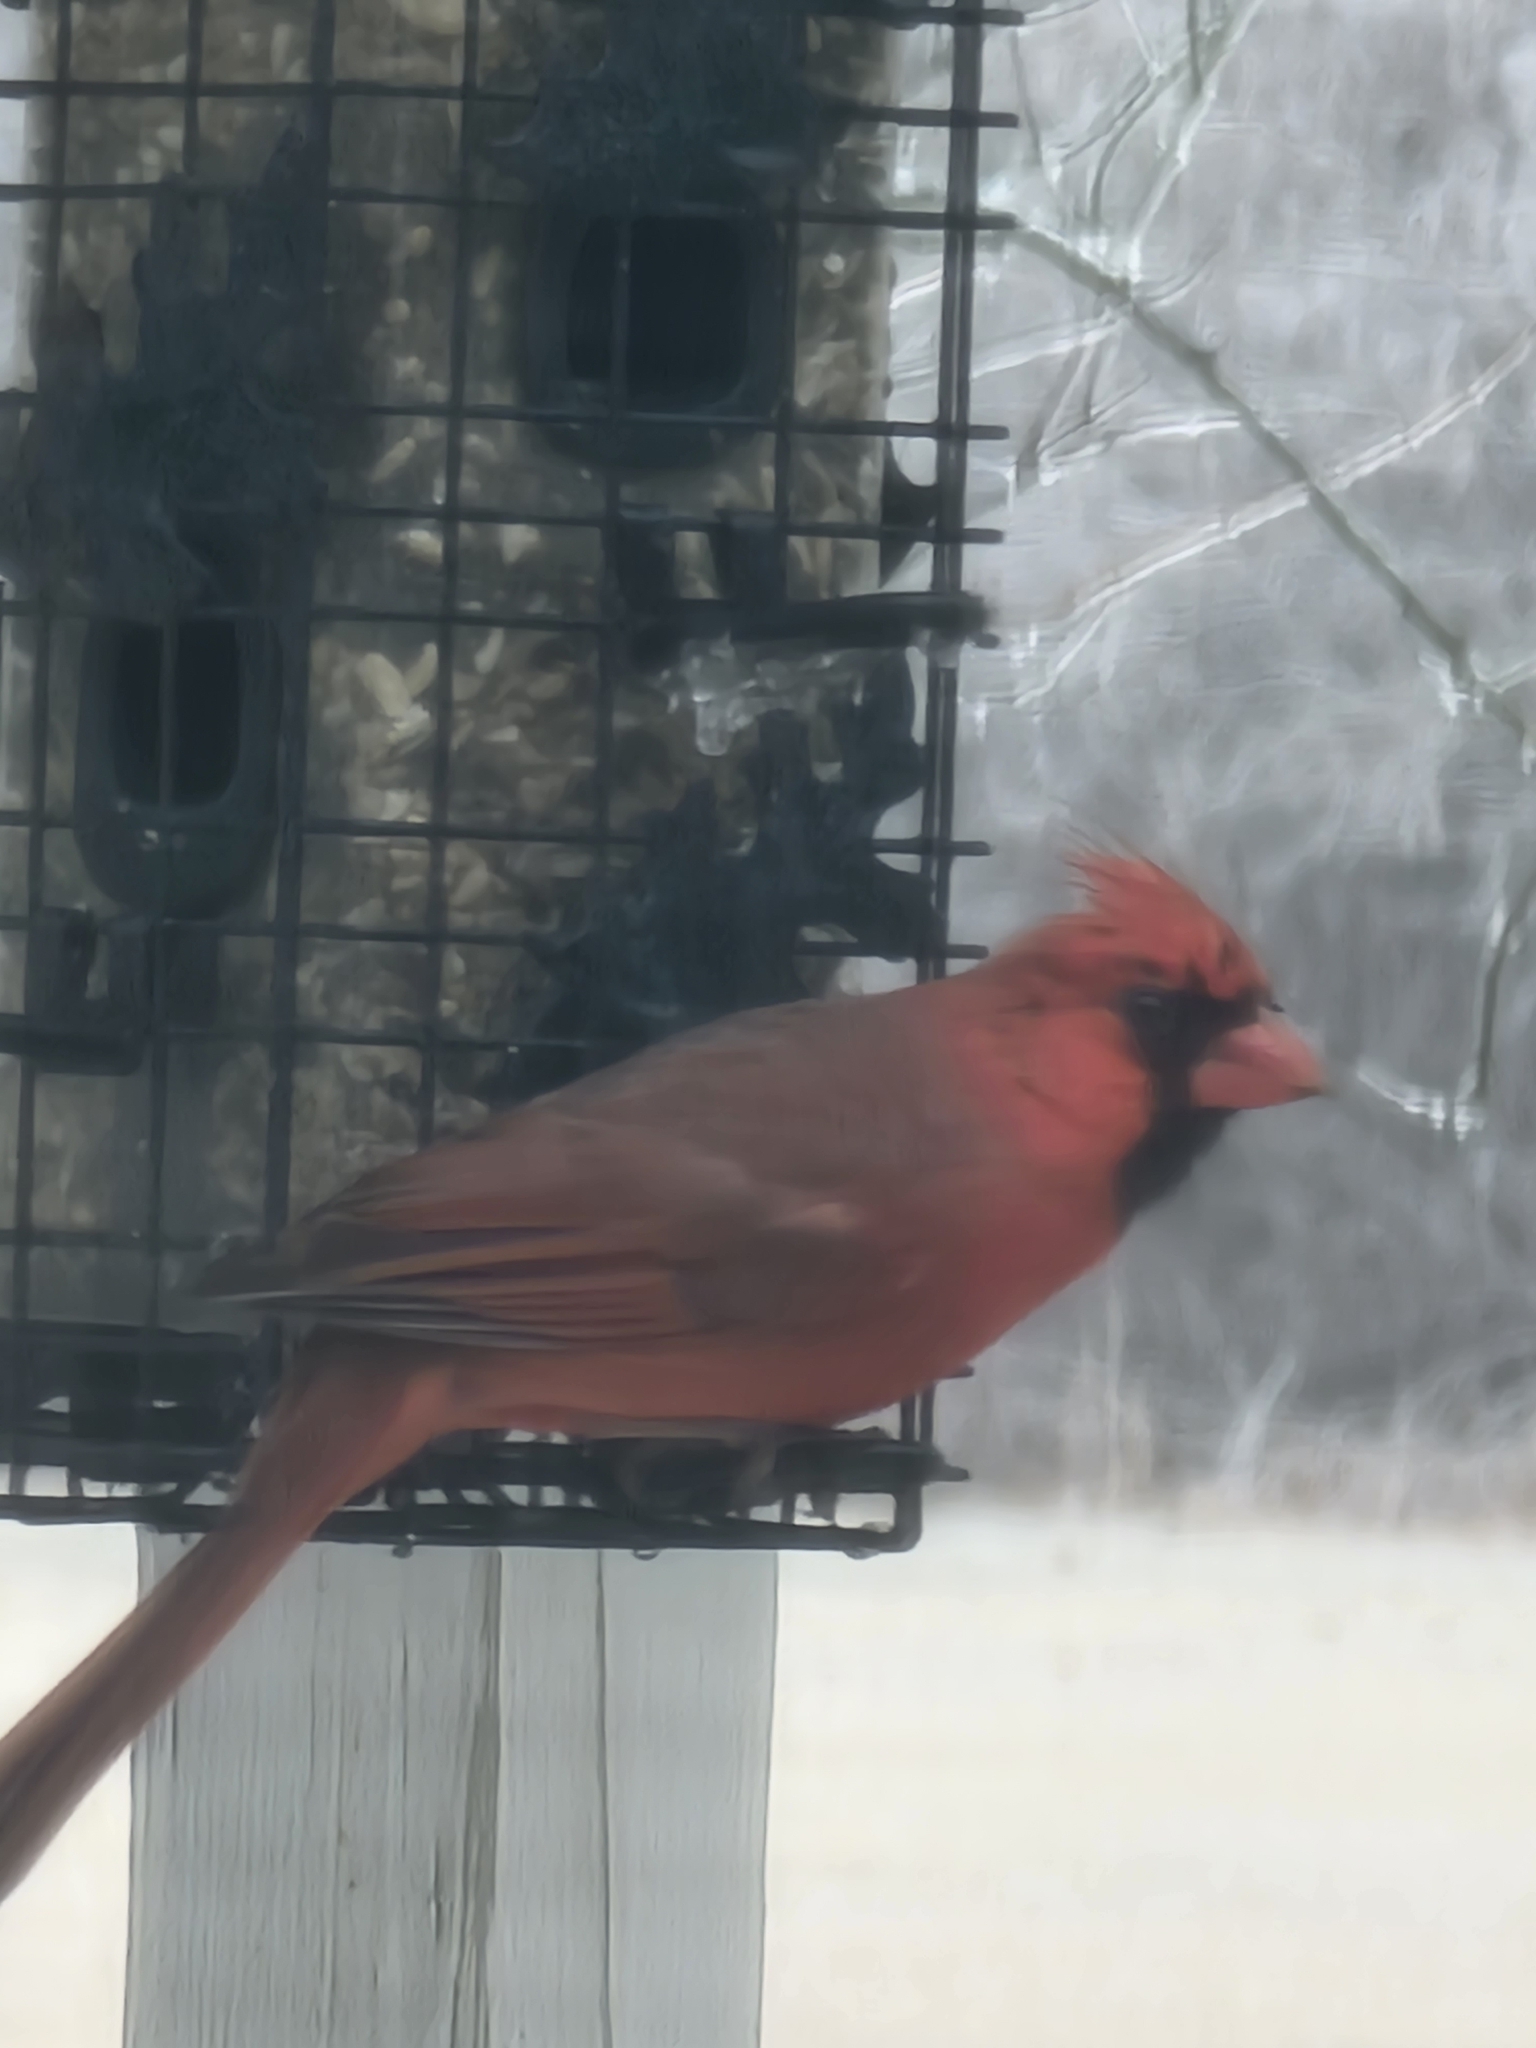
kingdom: Animalia
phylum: Chordata
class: Aves
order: Passeriformes
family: Cardinalidae
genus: Cardinalis
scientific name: Cardinalis cardinalis
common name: Northern cardinal
